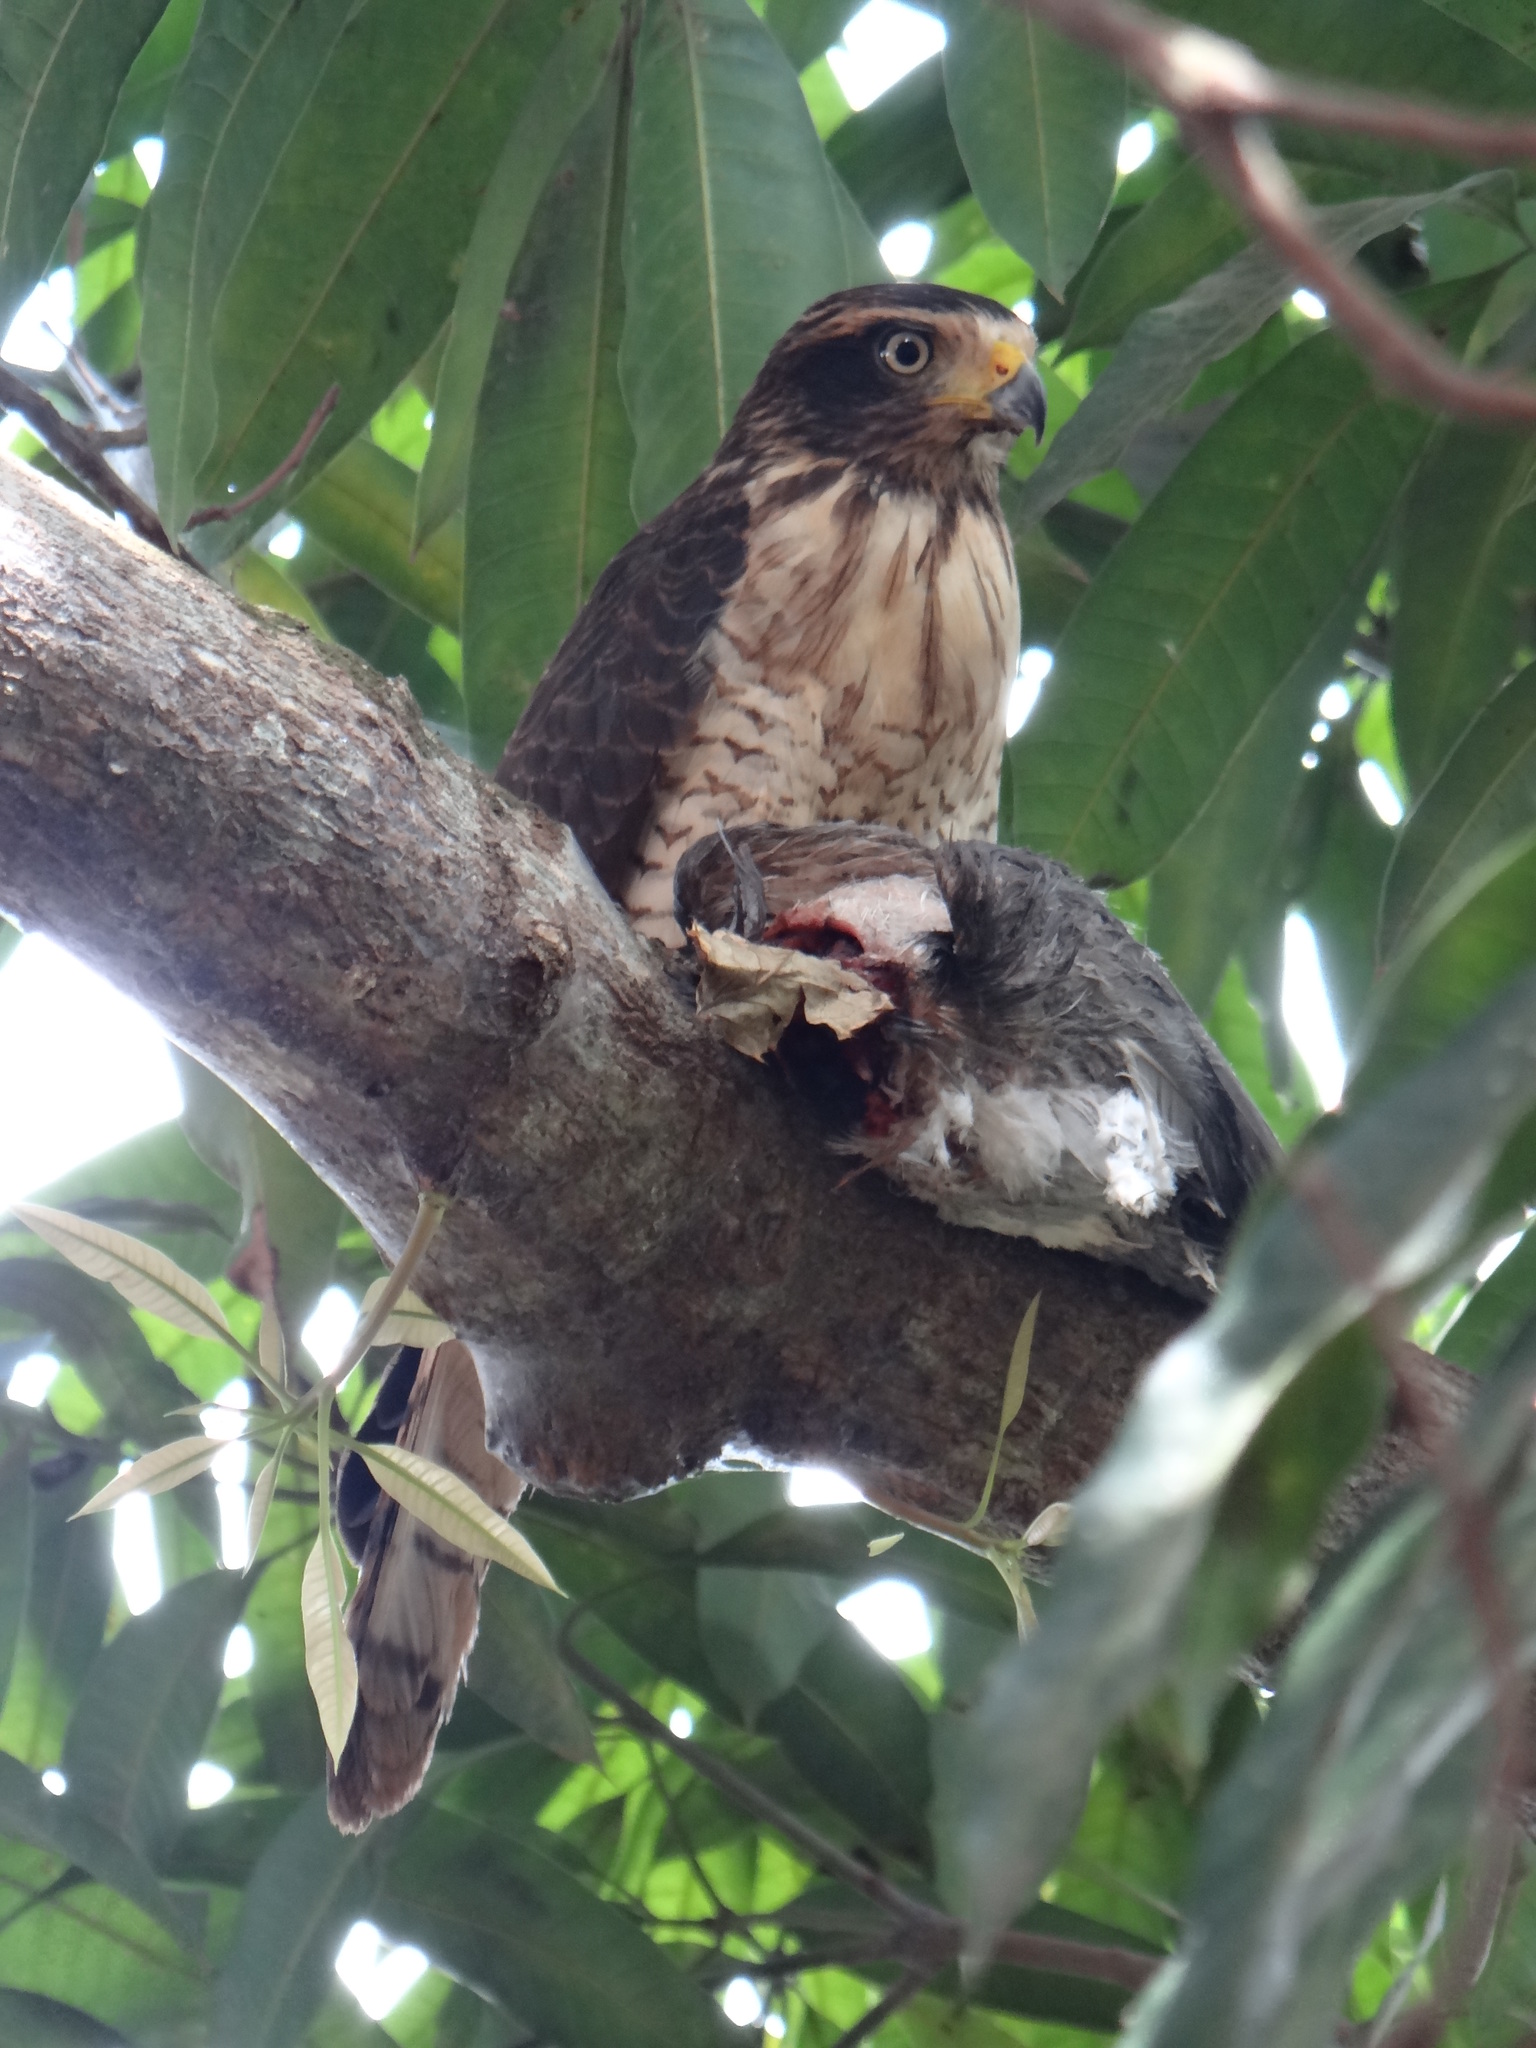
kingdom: Animalia
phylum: Chordata
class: Aves
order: Accipitriformes
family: Accipitridae
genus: Rupornis
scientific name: Rupornis magnirostris
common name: Roadside hawk
